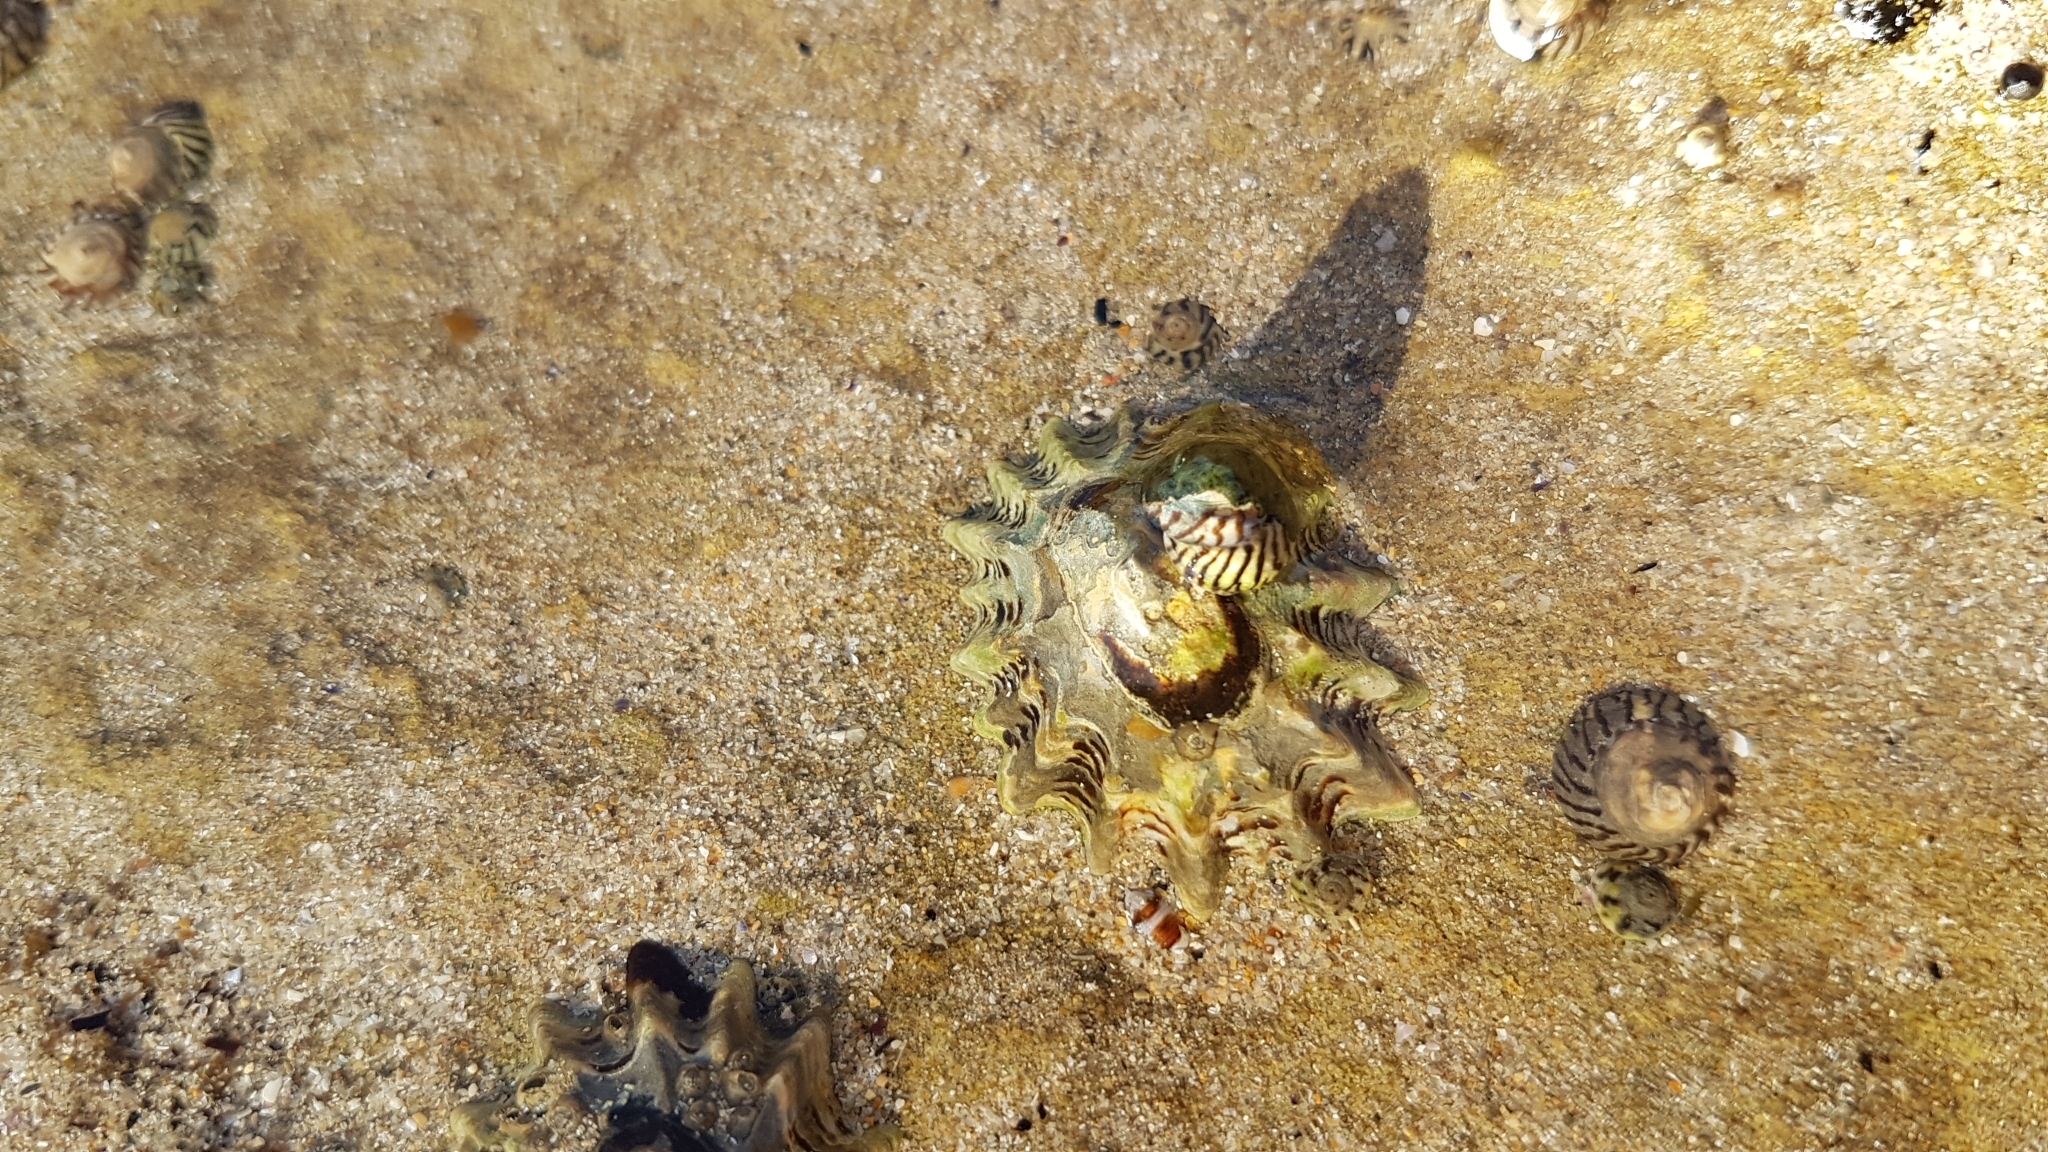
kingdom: Animalia
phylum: Mollusca
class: Gastropoda
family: Lottiidae
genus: Patelloida
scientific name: Patelloida alticostata
